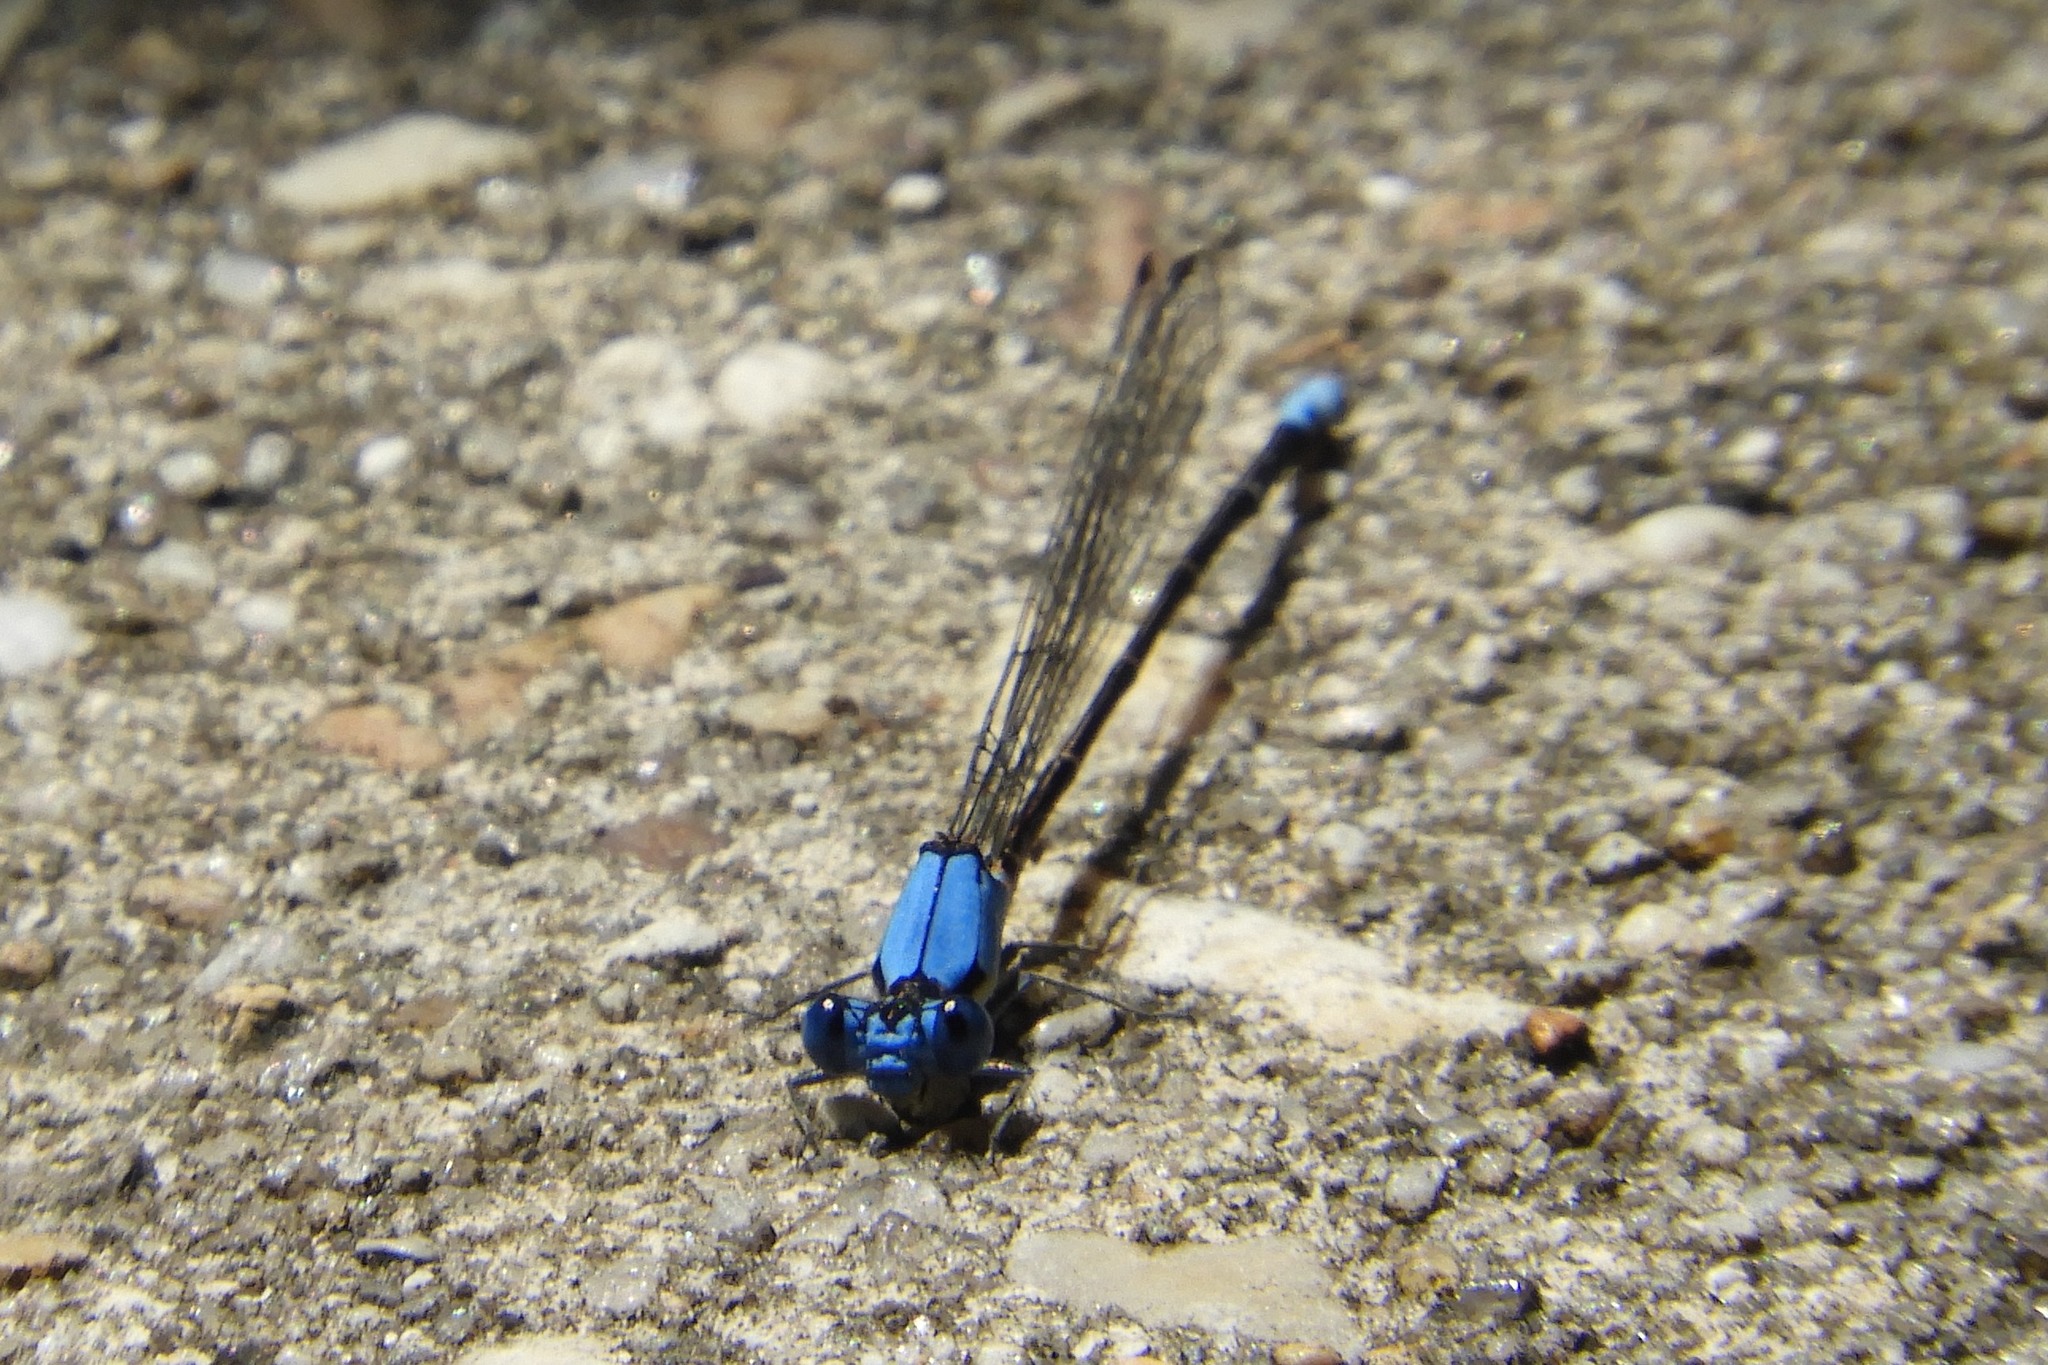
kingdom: Animalia
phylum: Arthropoda
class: Insecta
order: Odonata
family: Coenagrionidae
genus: Argia
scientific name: Argia apicalis
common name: Blue-fronted dancer
